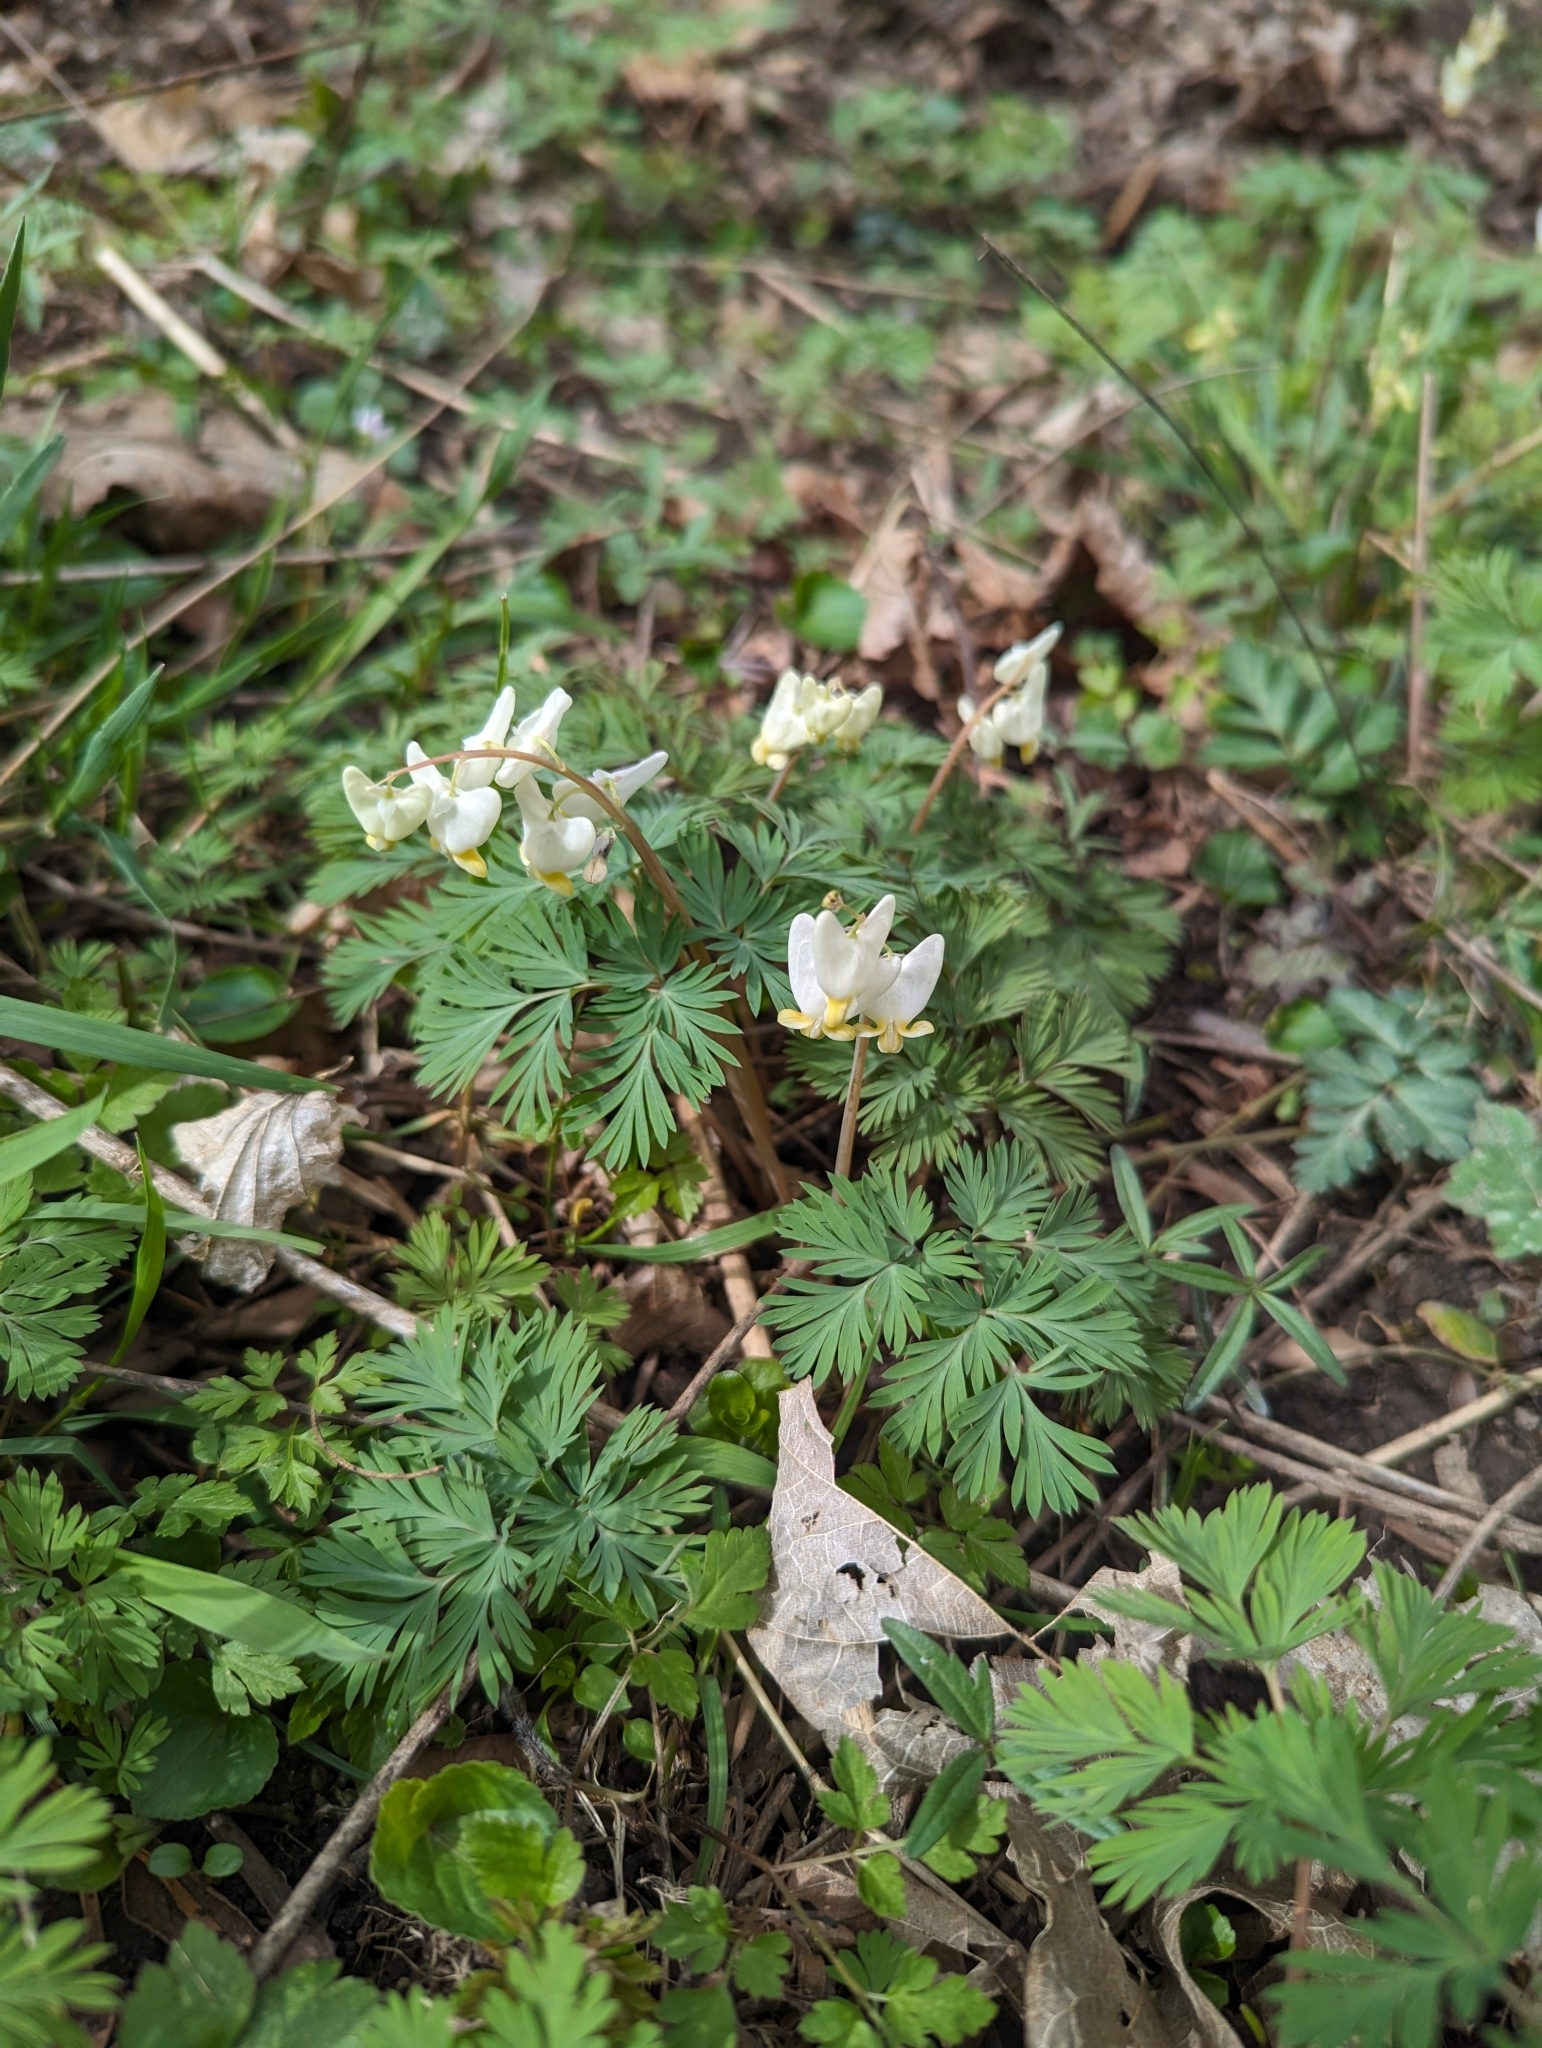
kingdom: Plantae
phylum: Tracheophyta
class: Magnoliopsida
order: Ranunculales
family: Papaveraceae
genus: Dicentra
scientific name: Dicentra cucullaria
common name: Dutchman's breeches
